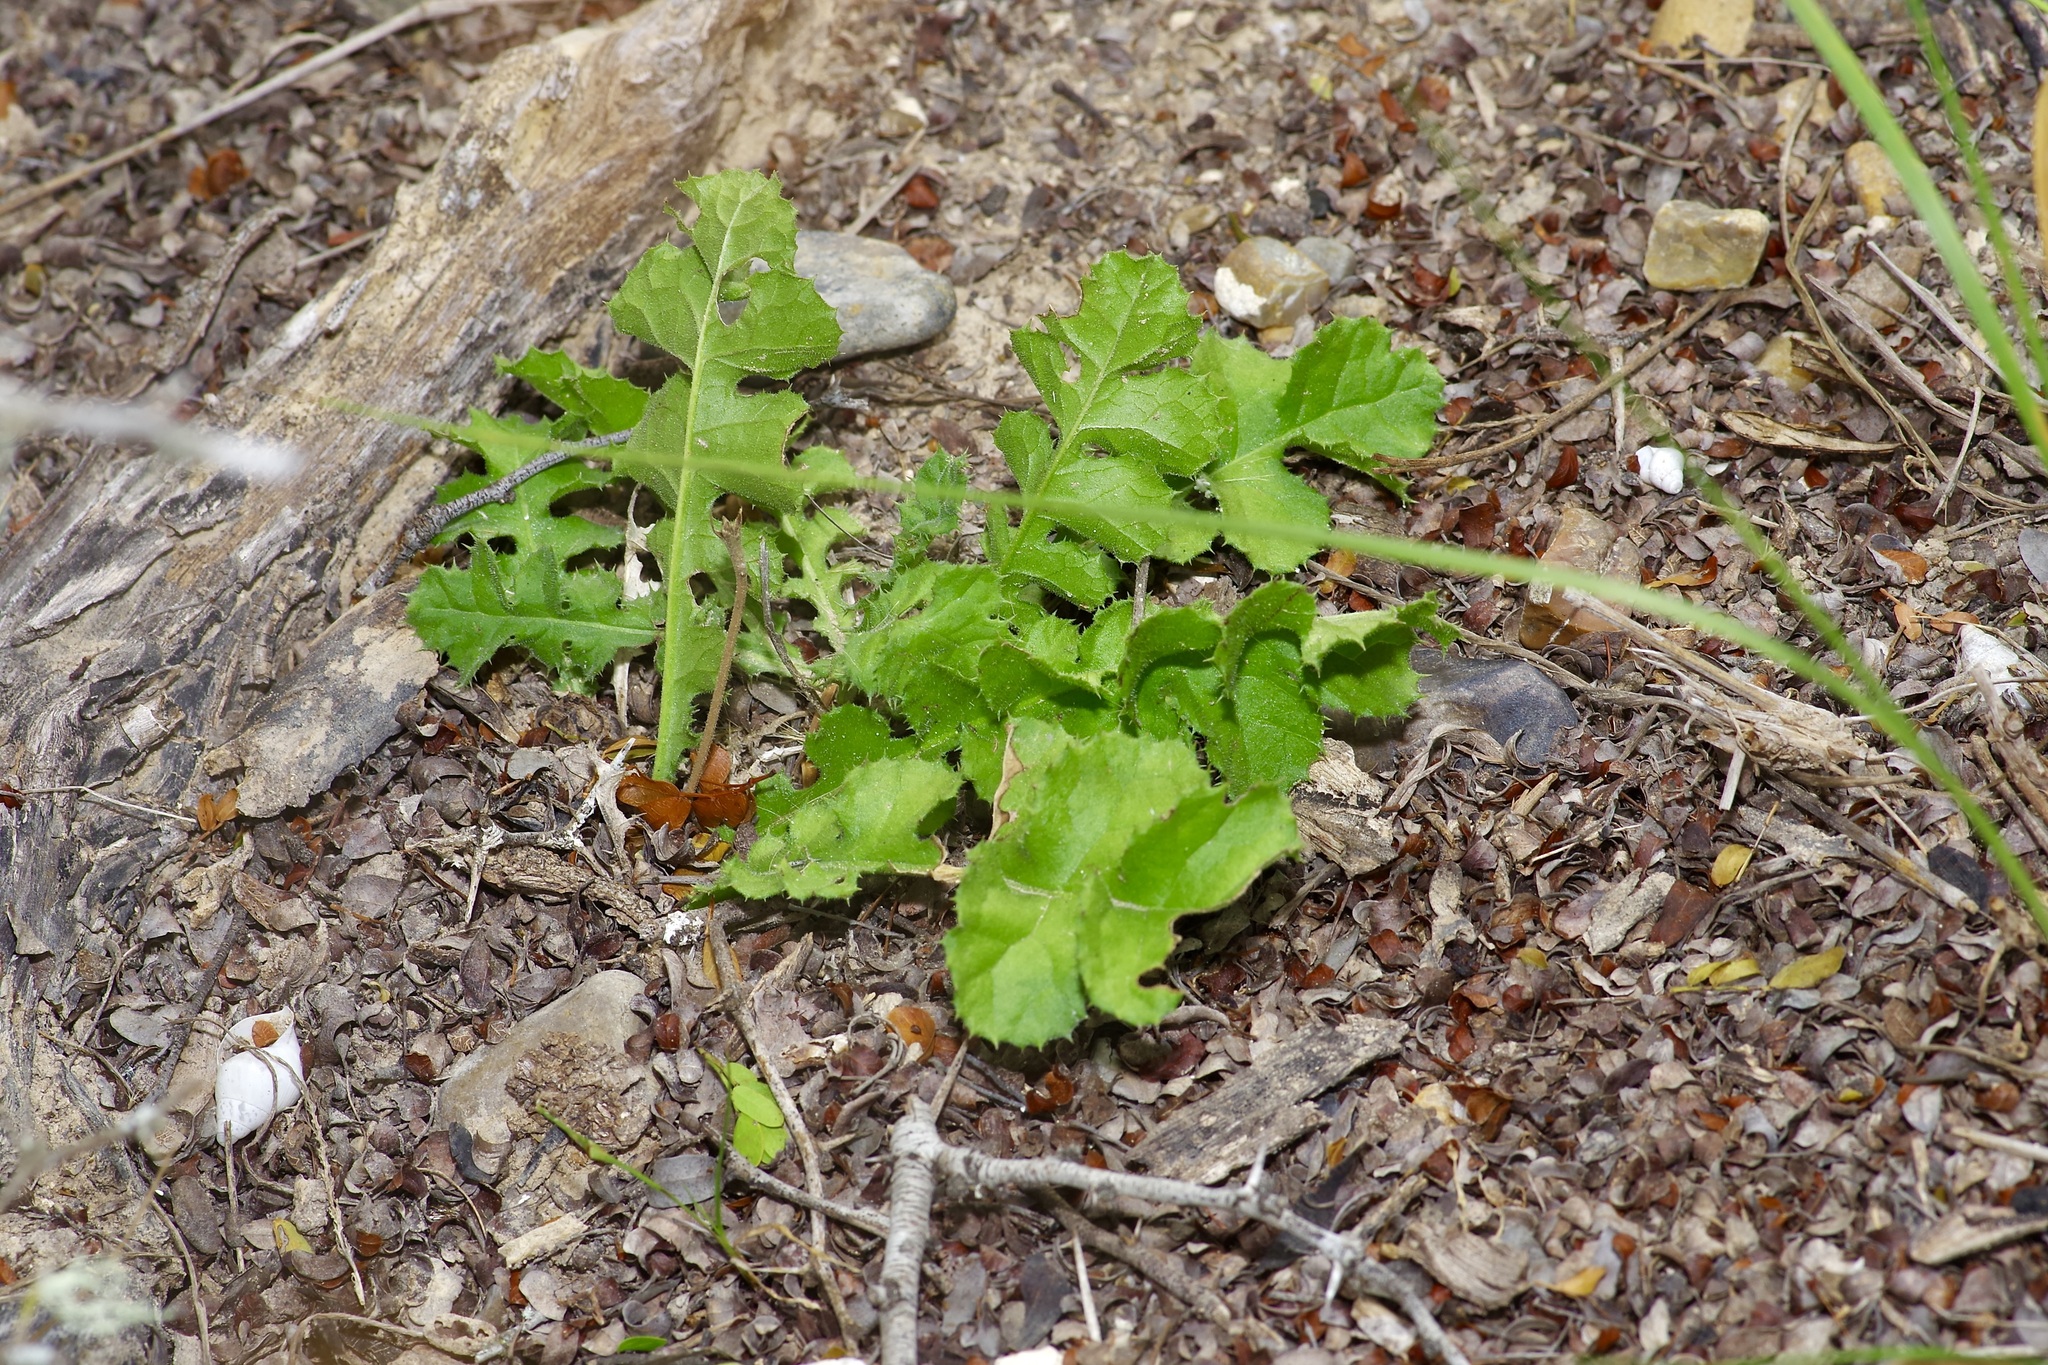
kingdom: Plantae
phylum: Tracheophyta
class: Magnoliopsida
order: Asterales
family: Asteraceae
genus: Acourtia
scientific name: Acourtia runcinata
